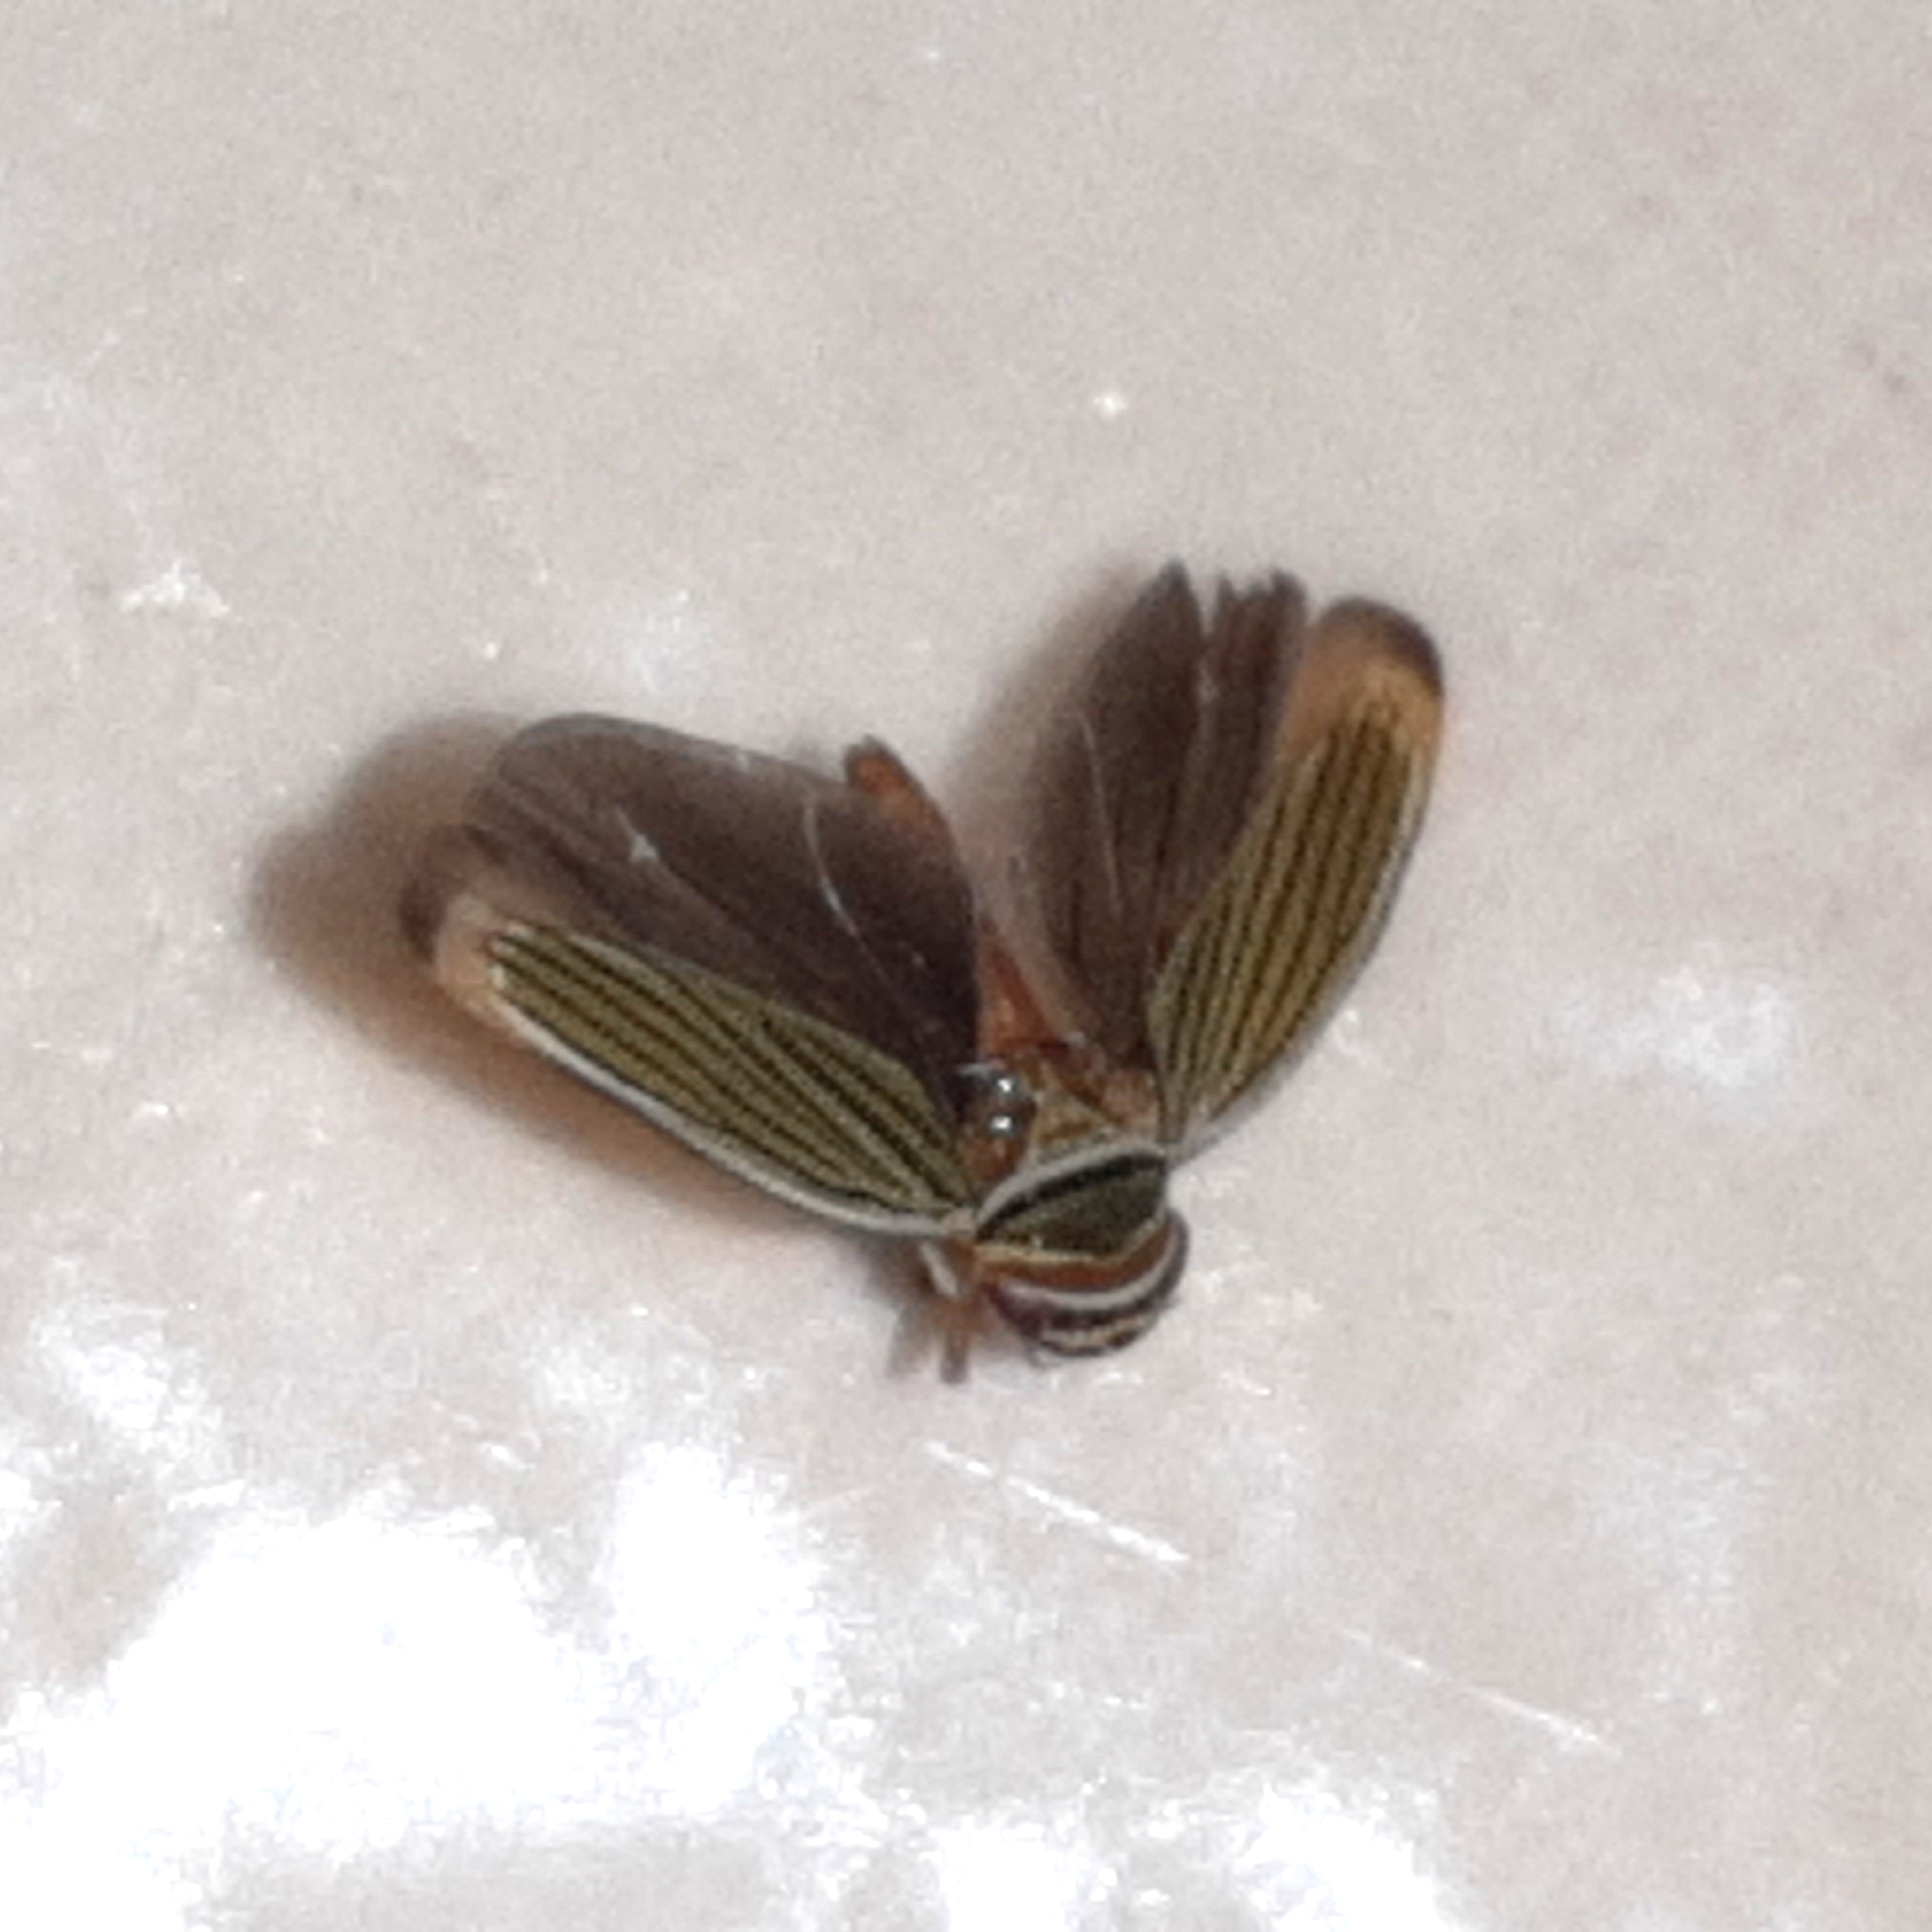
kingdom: Animalia
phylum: Arthropoda
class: Insecta
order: Hemiptera
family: Cicadellidae
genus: Tylozygus
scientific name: Tylozygus fuscolineellus
